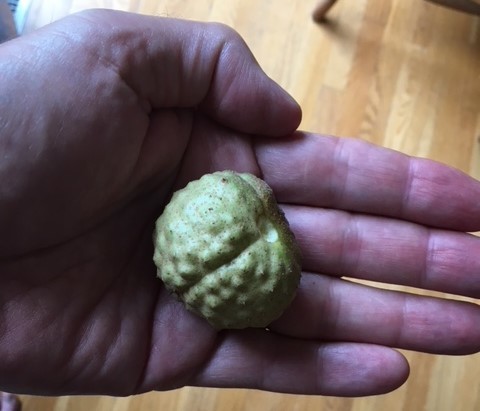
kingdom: Plantae
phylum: Tracheophyta
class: Magnoliopsida
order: Sapindales
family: Sapindaceae
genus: Aesculus
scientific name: Aesculus glabra
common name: Ohio buckeye
